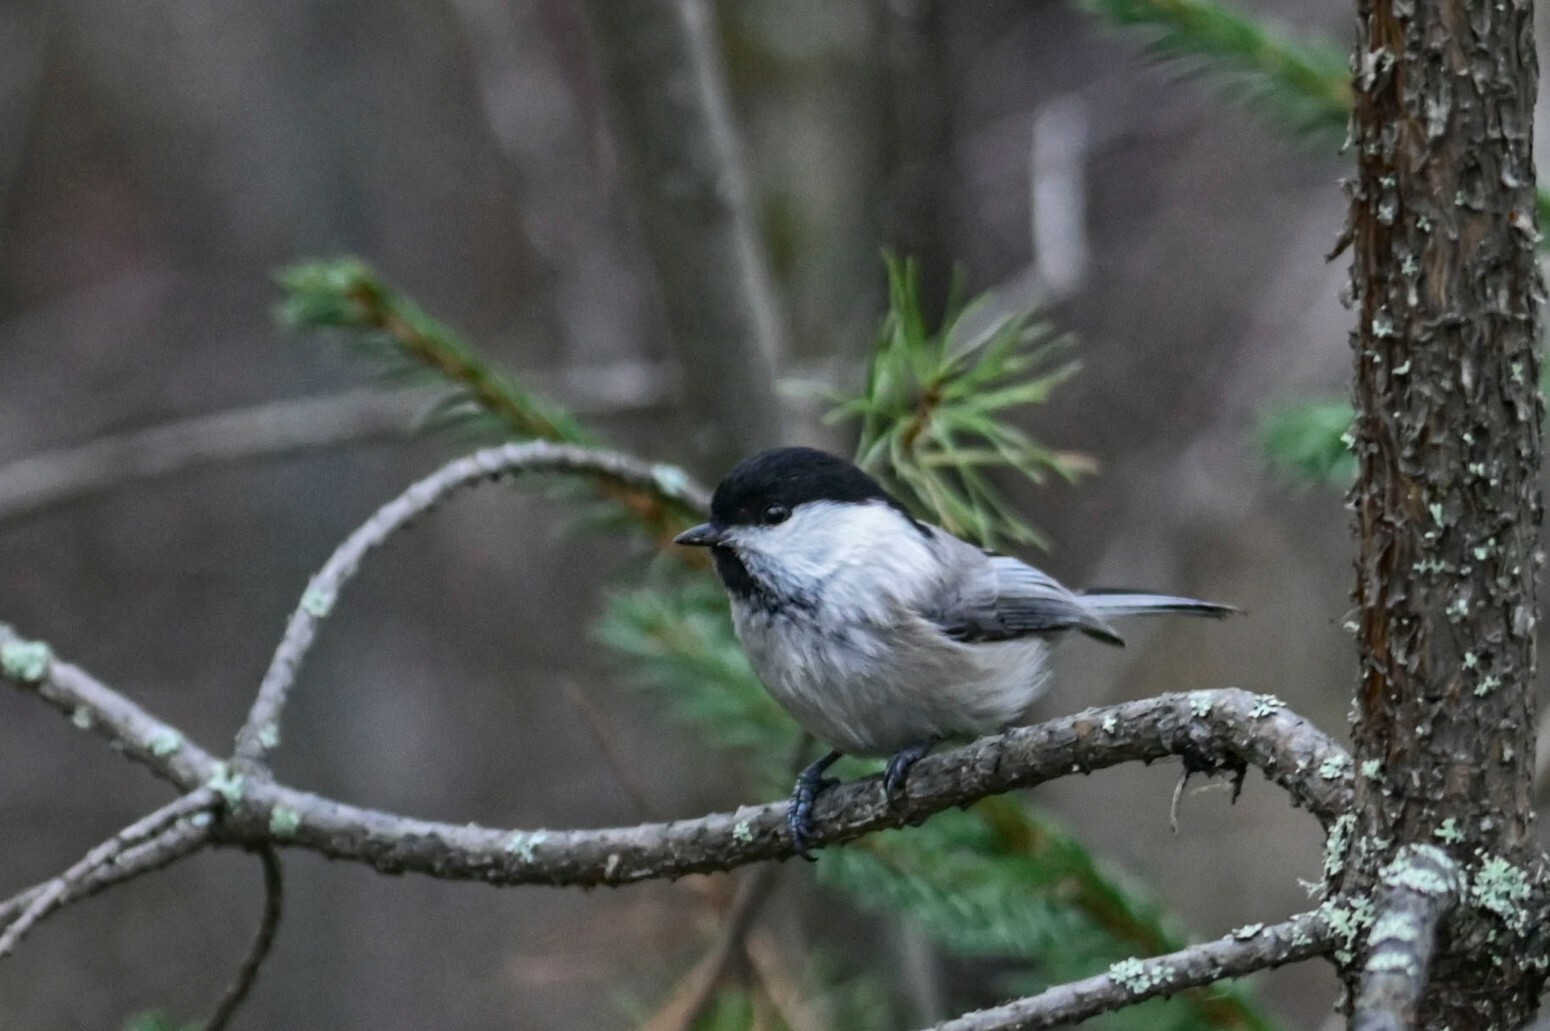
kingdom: Animalia
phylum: Chordata
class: Aves
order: Passeriformes
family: Paridae
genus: Poecile
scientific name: Poecile montanus
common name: Willow tit
